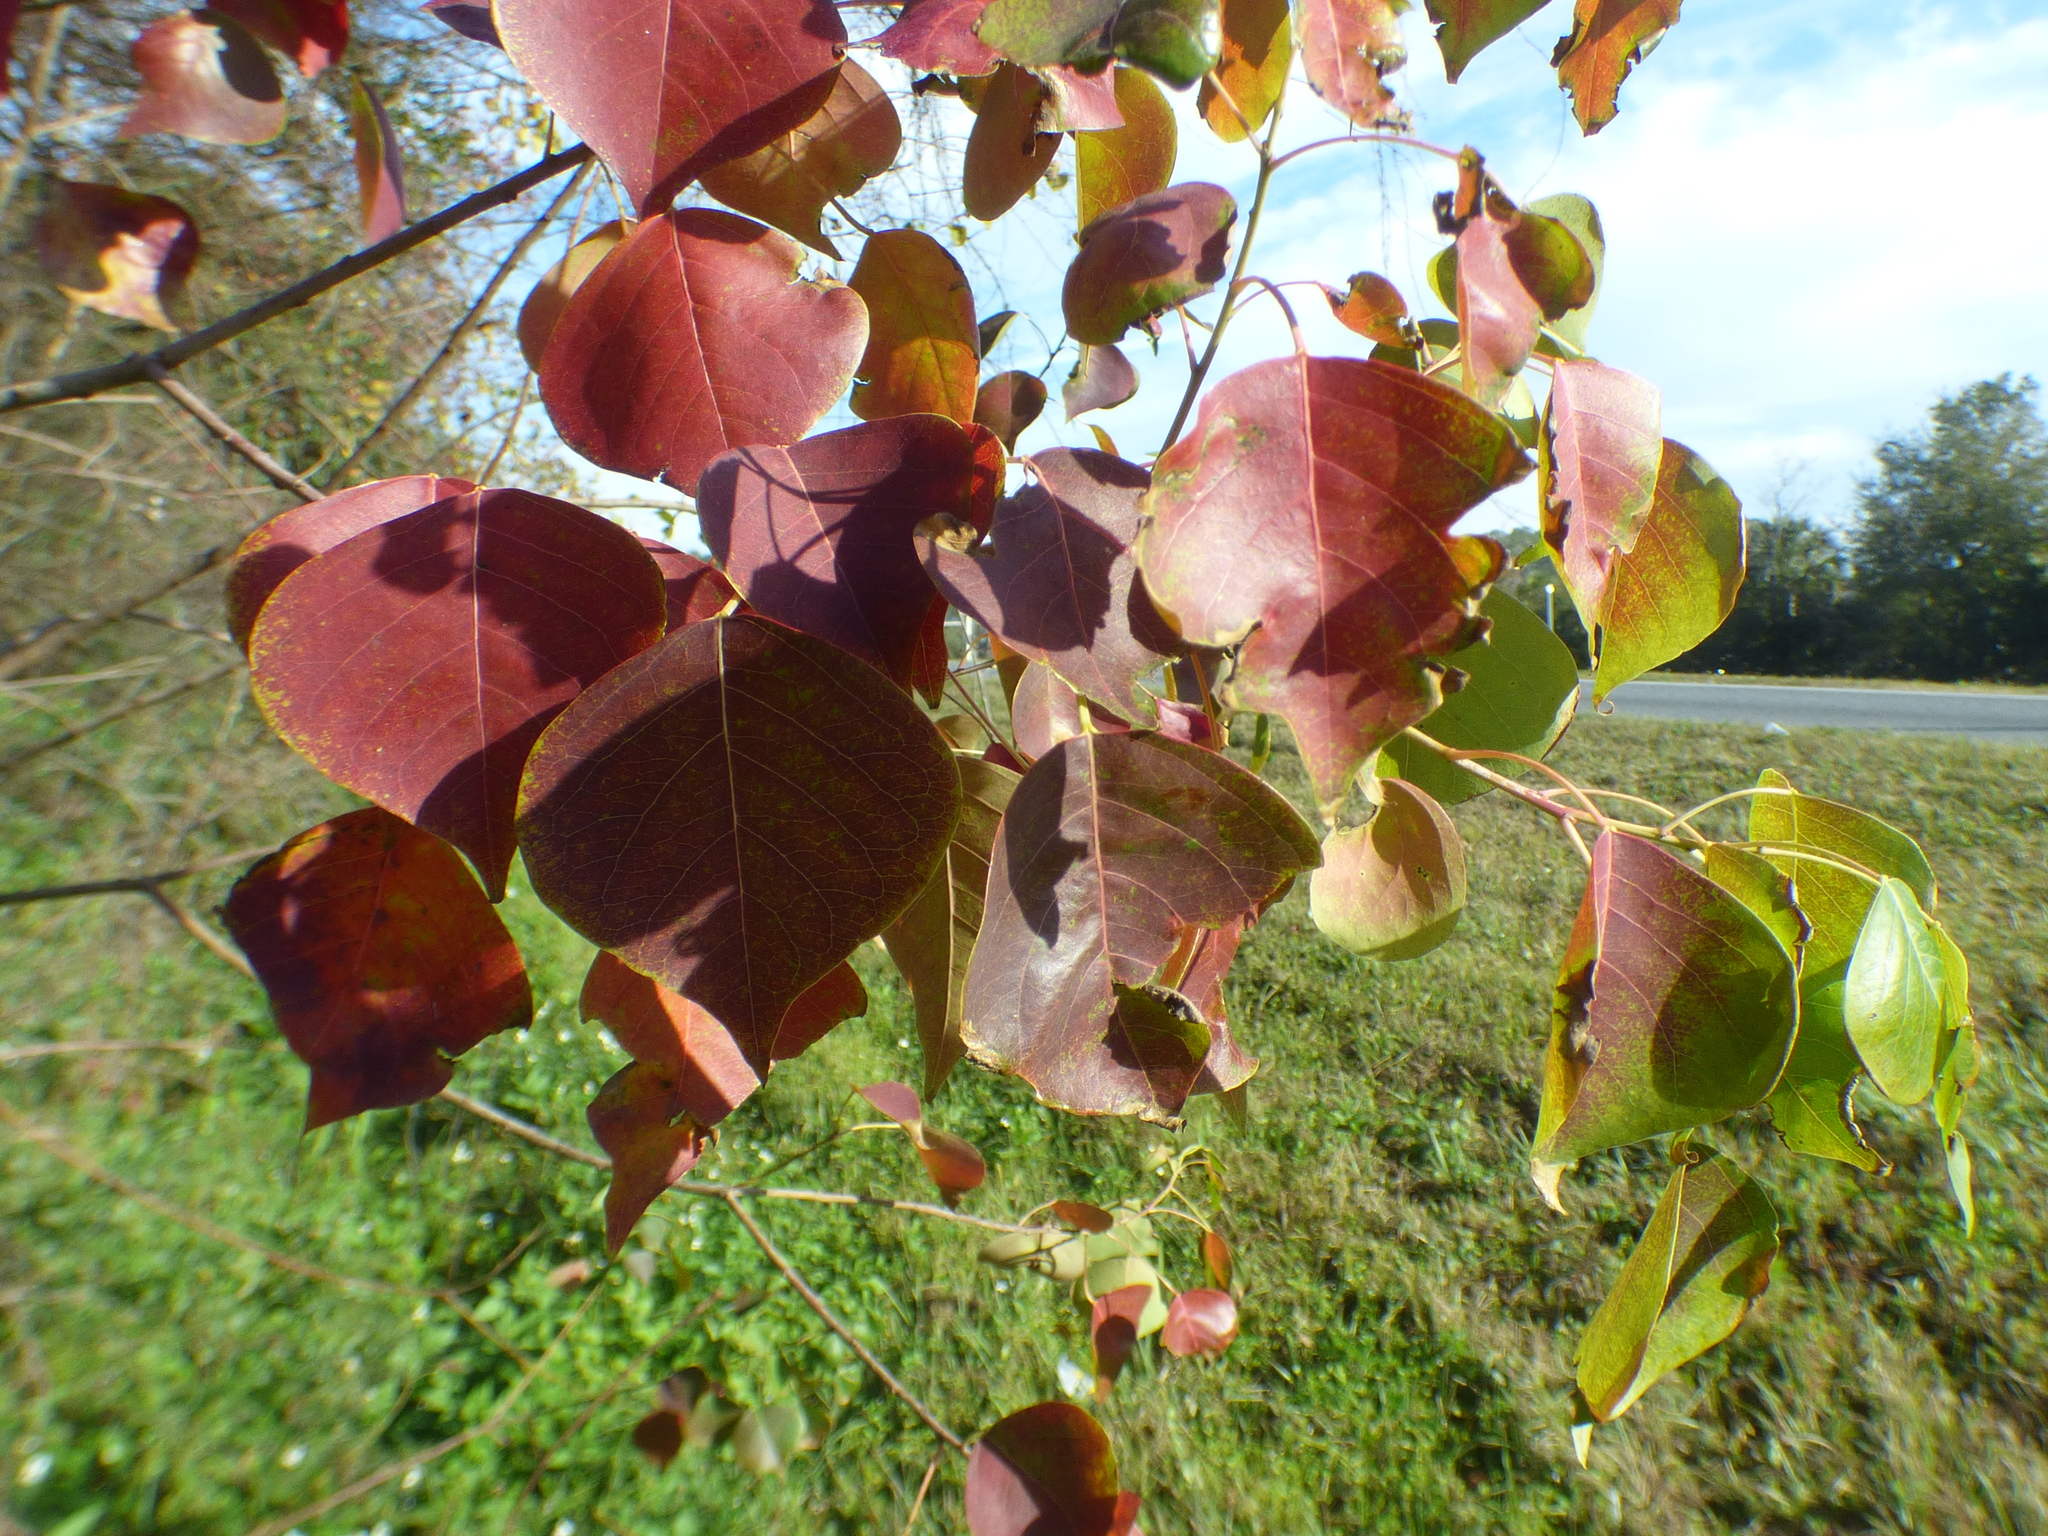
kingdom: Plantae
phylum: Tracheophyta
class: Magnoliopsida
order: Malpighiales
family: Euphorbiaceae
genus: Triadica
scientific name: Triadica sebifera
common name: Chinese tallow
